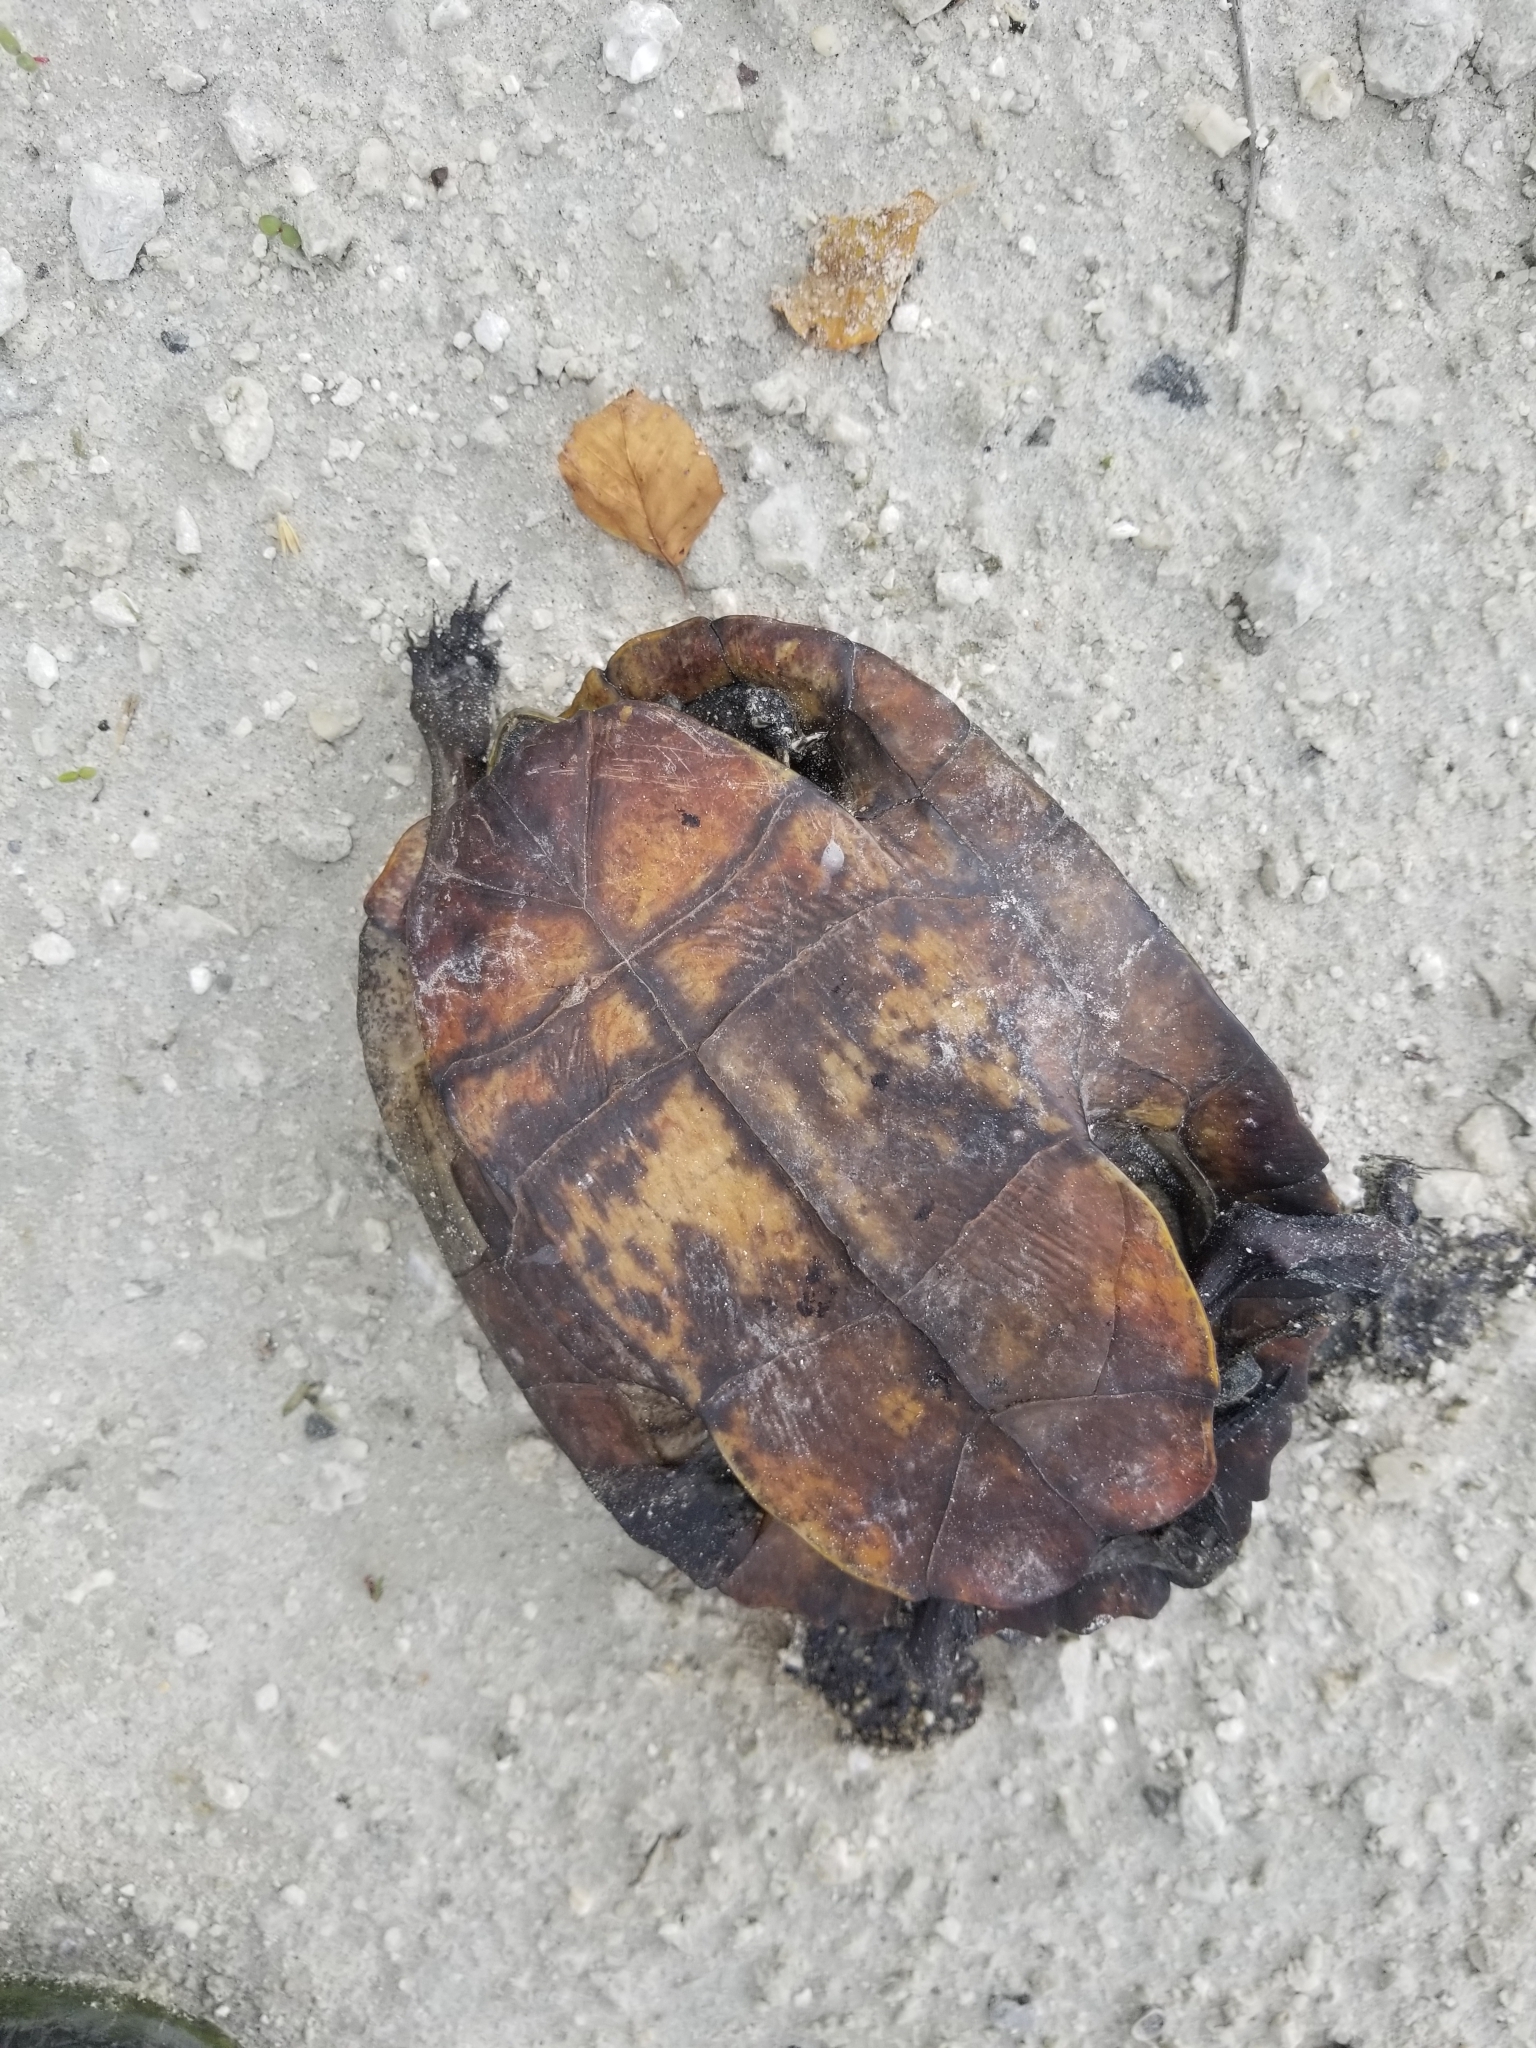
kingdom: Animalia
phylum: Chordata
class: Testudines
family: Emydidae
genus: Trachemys
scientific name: Trachemys scripta
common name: Slider
